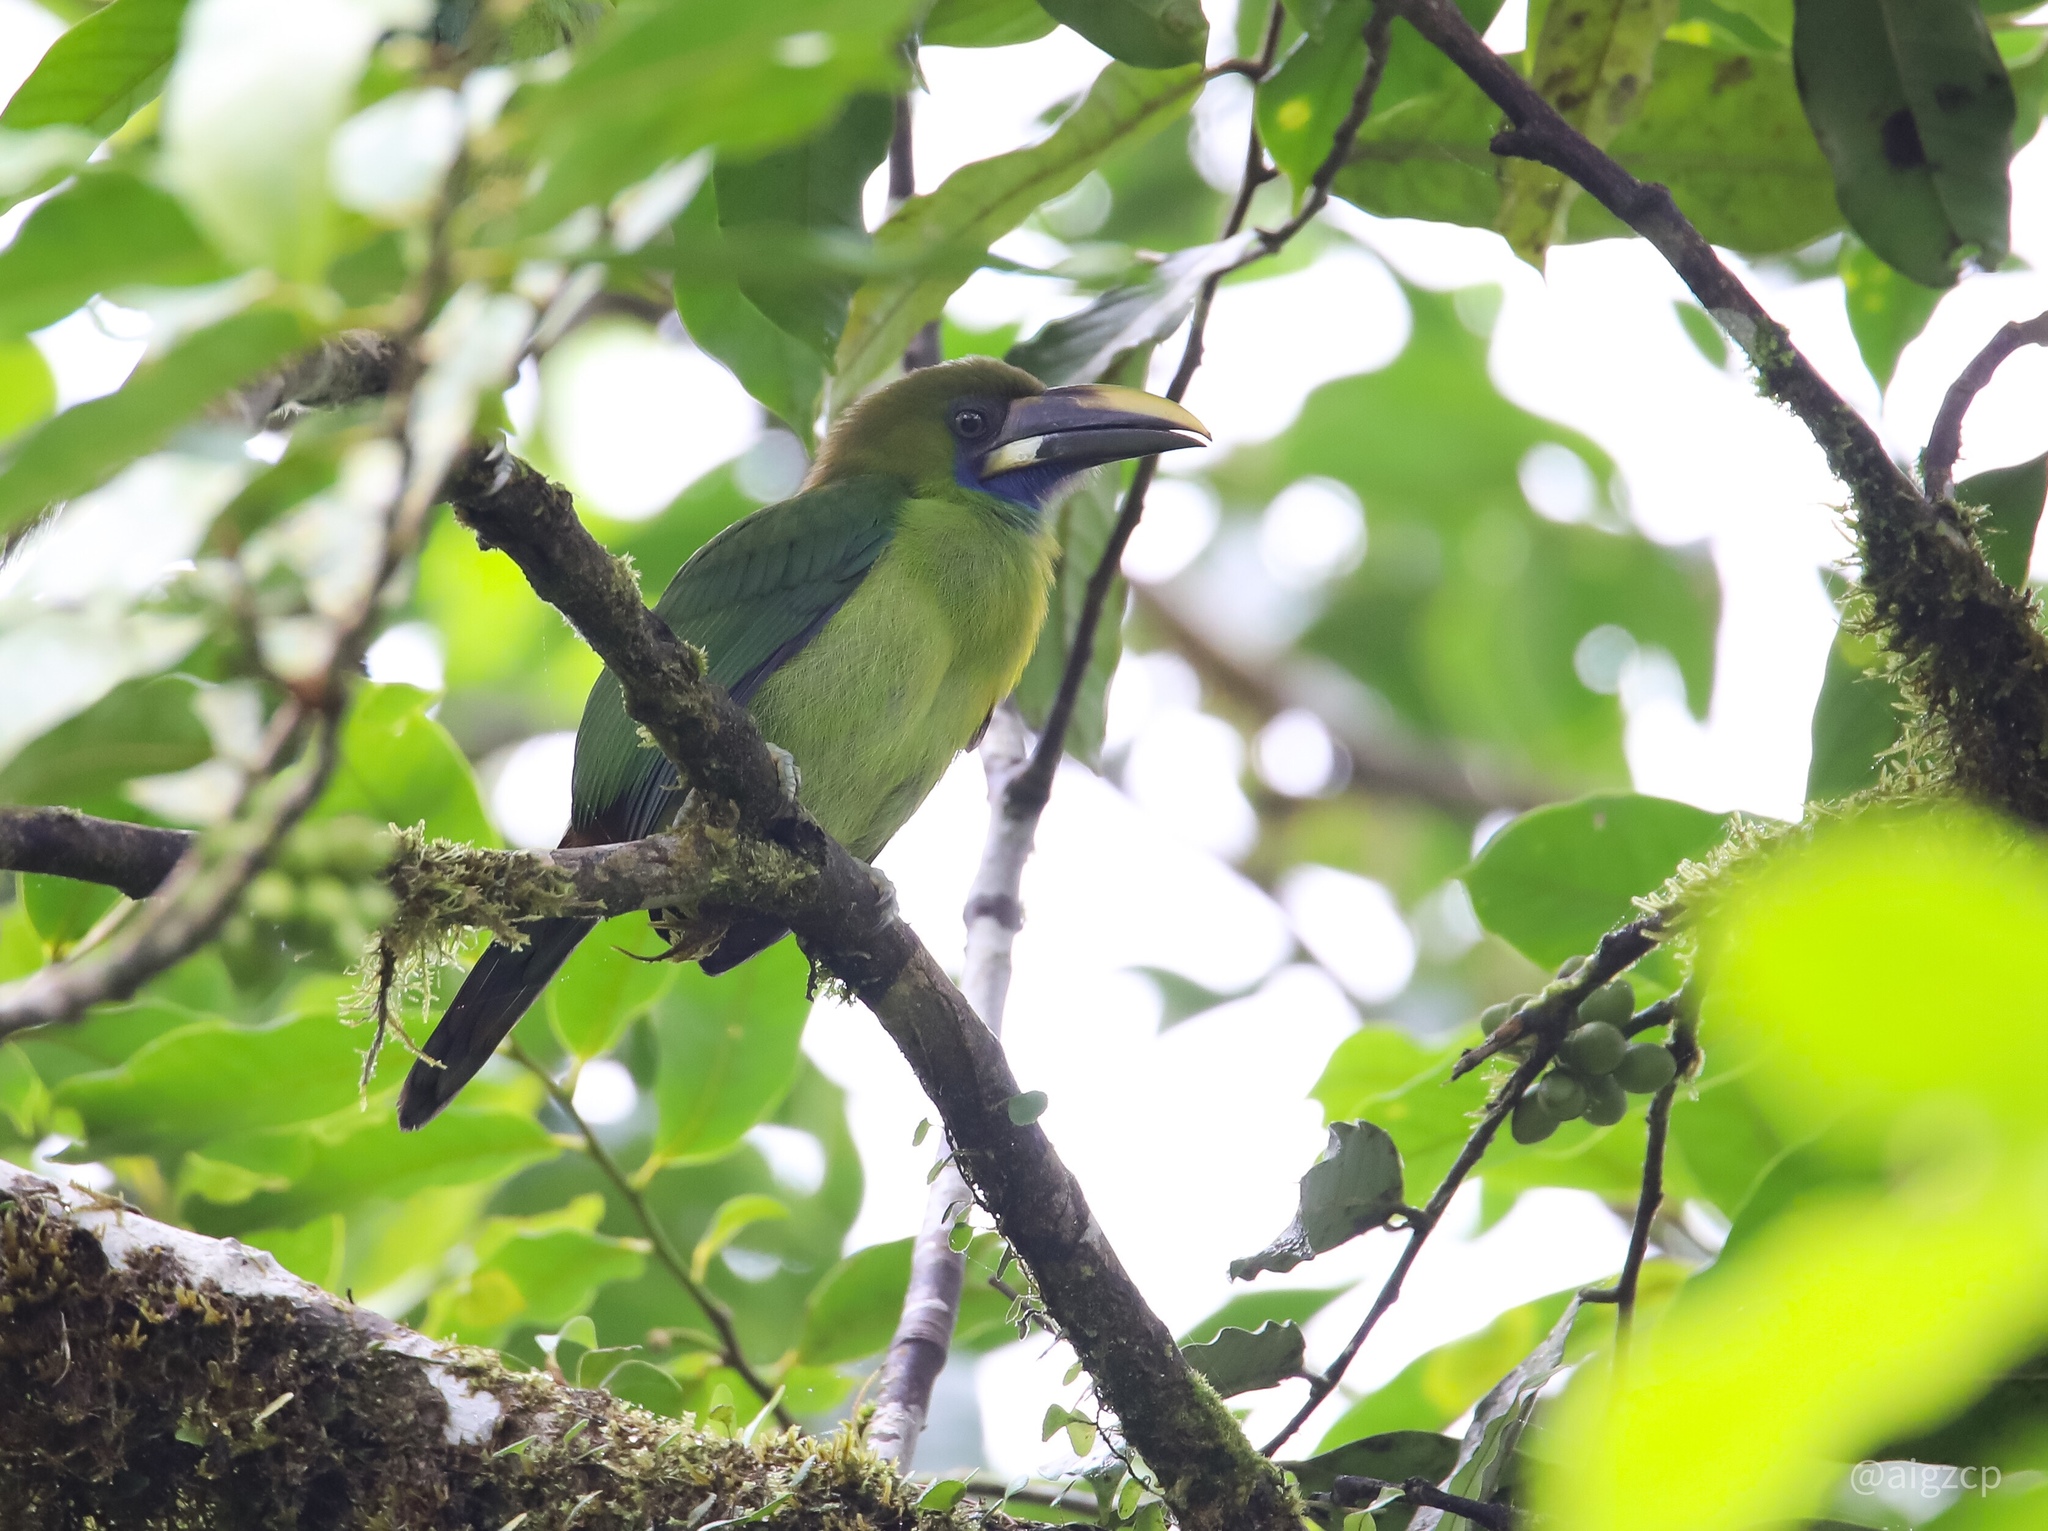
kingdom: Animalia
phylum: Chordata
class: Aves
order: Piciformes
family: Ramphastidae
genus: Aulacorhynchus
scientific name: Aulacorhynchus prasinus
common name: Emerald toucanet
